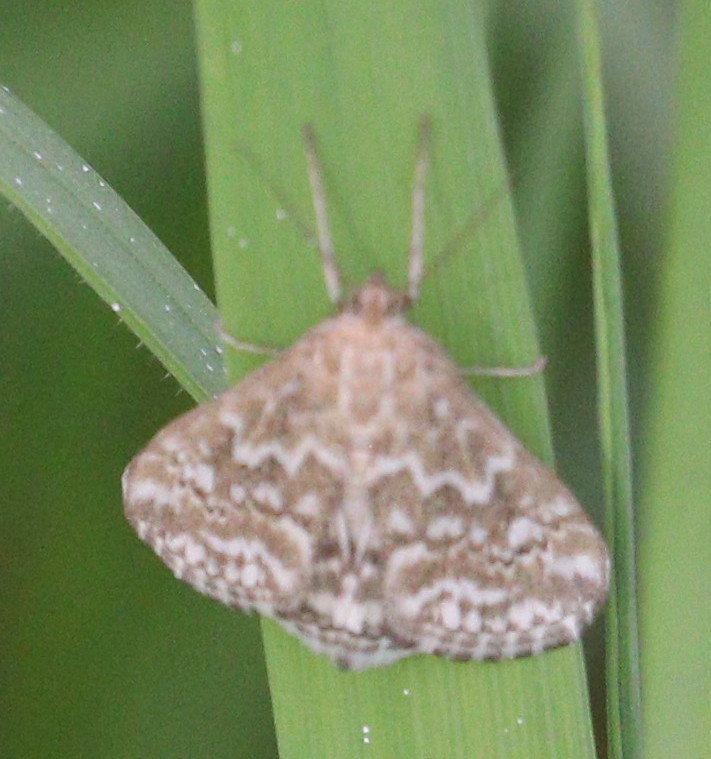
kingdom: Animalia
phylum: Arthropoda
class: Insecta
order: Lepidoptera
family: Crambidae
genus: Evergestis
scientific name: Evergestis frumentalis
